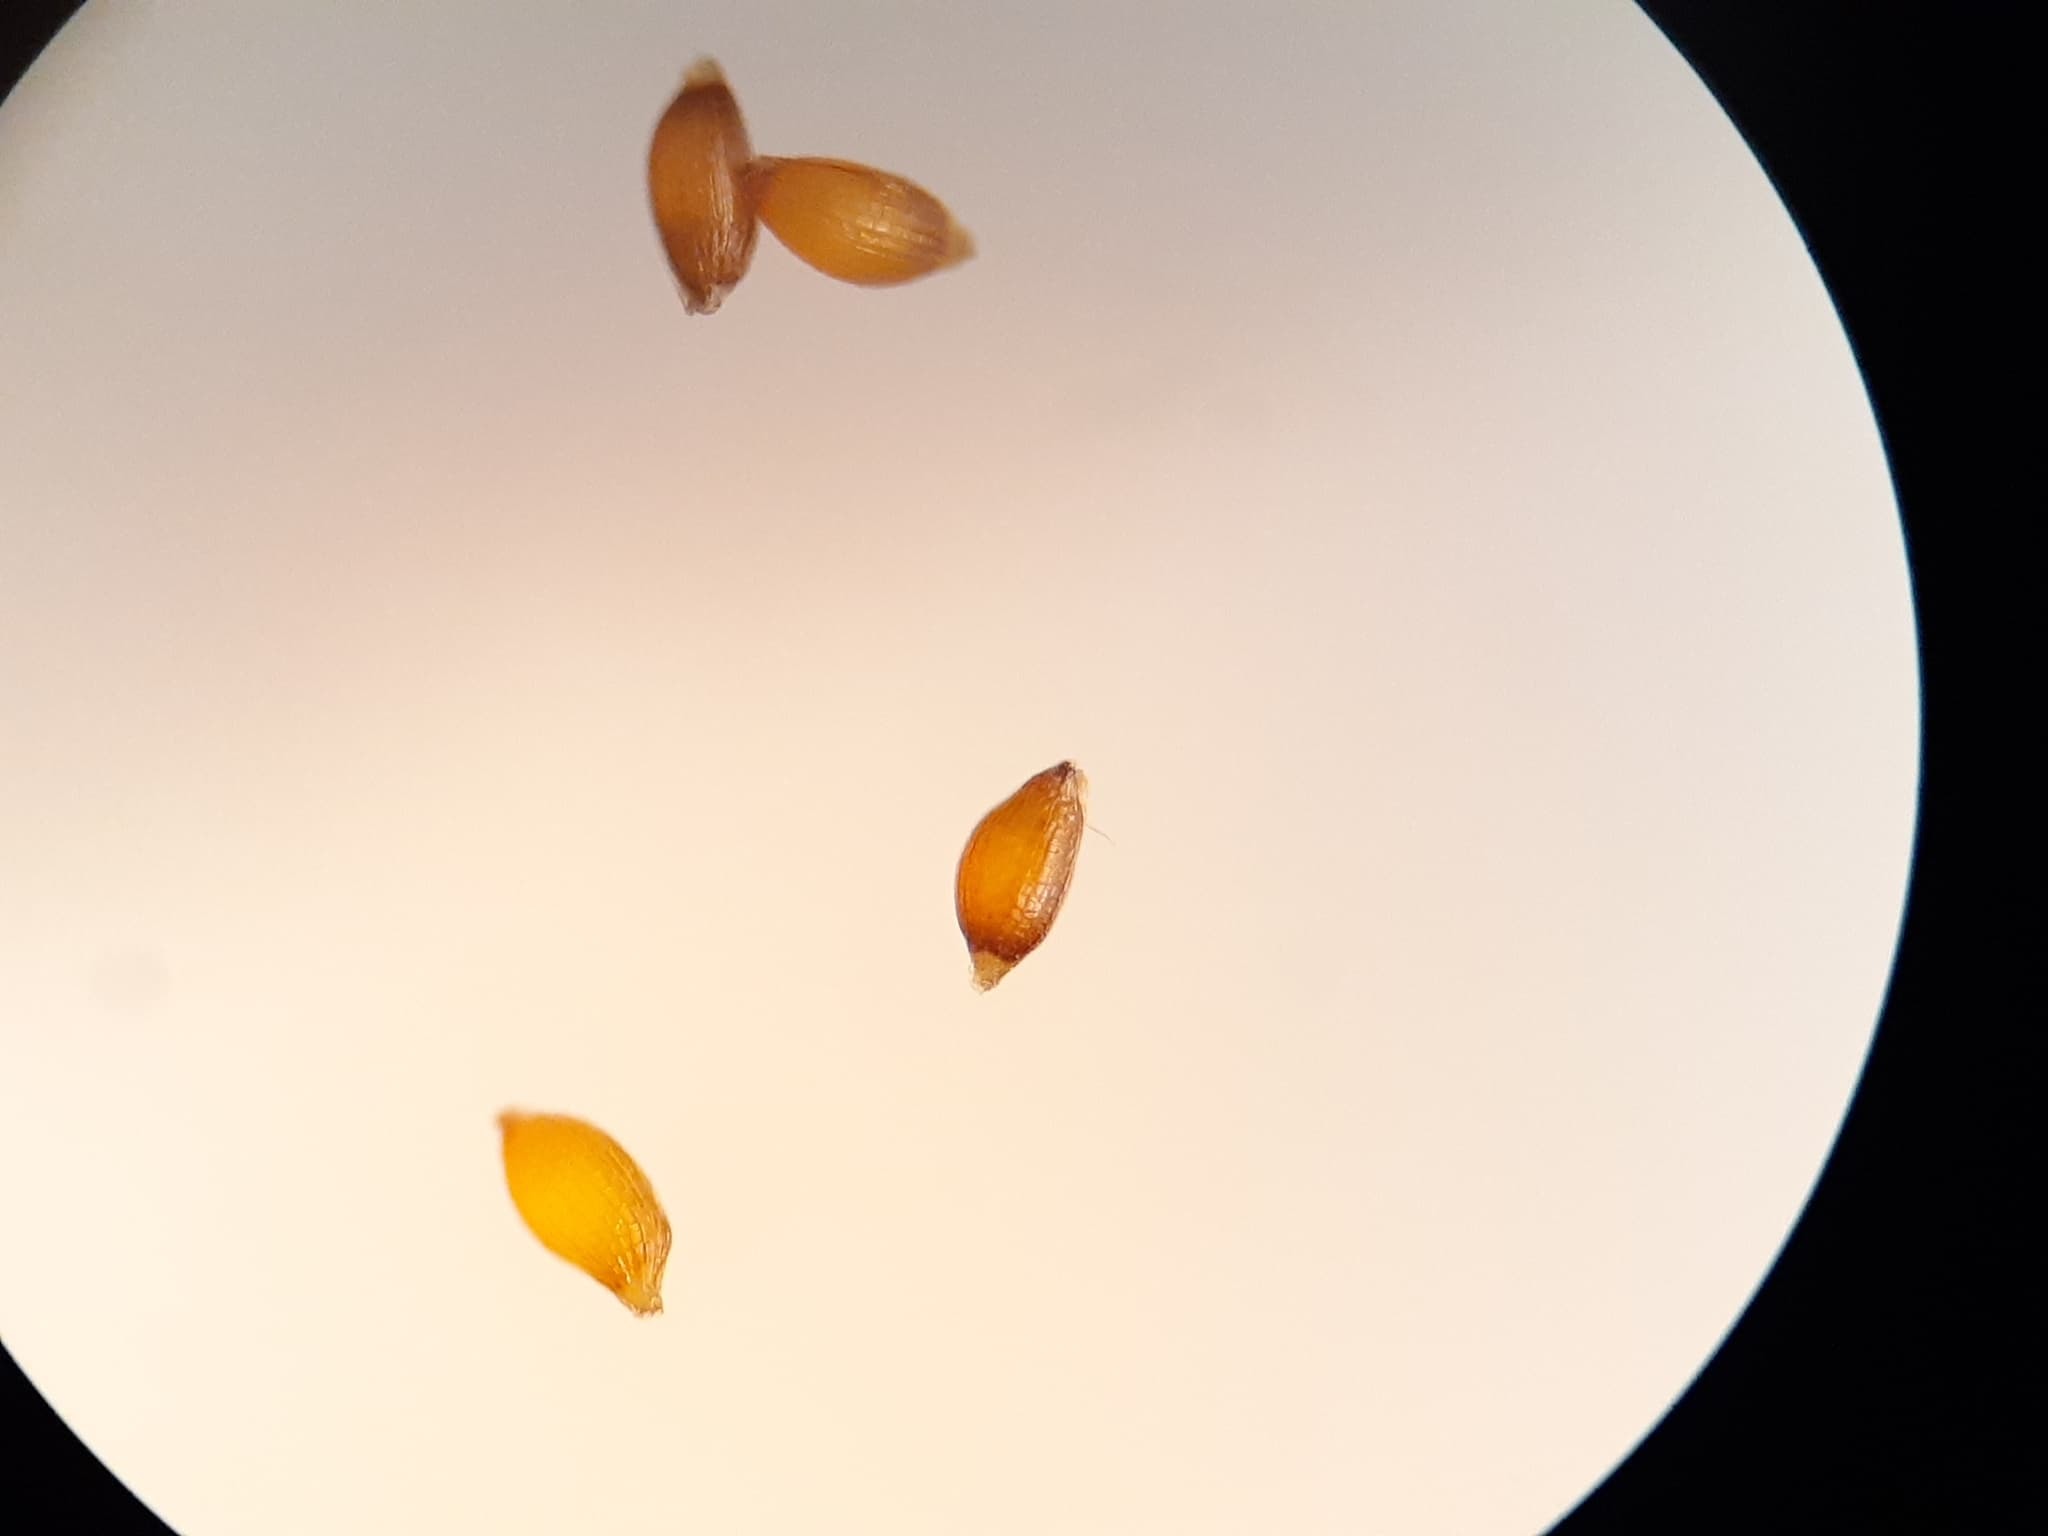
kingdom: Plantae
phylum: Tracheophyta
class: Liliopsida
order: Poales
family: Juncaceae
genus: Juncus
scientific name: Juncus alpinoarticulatus
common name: Alpine rush
